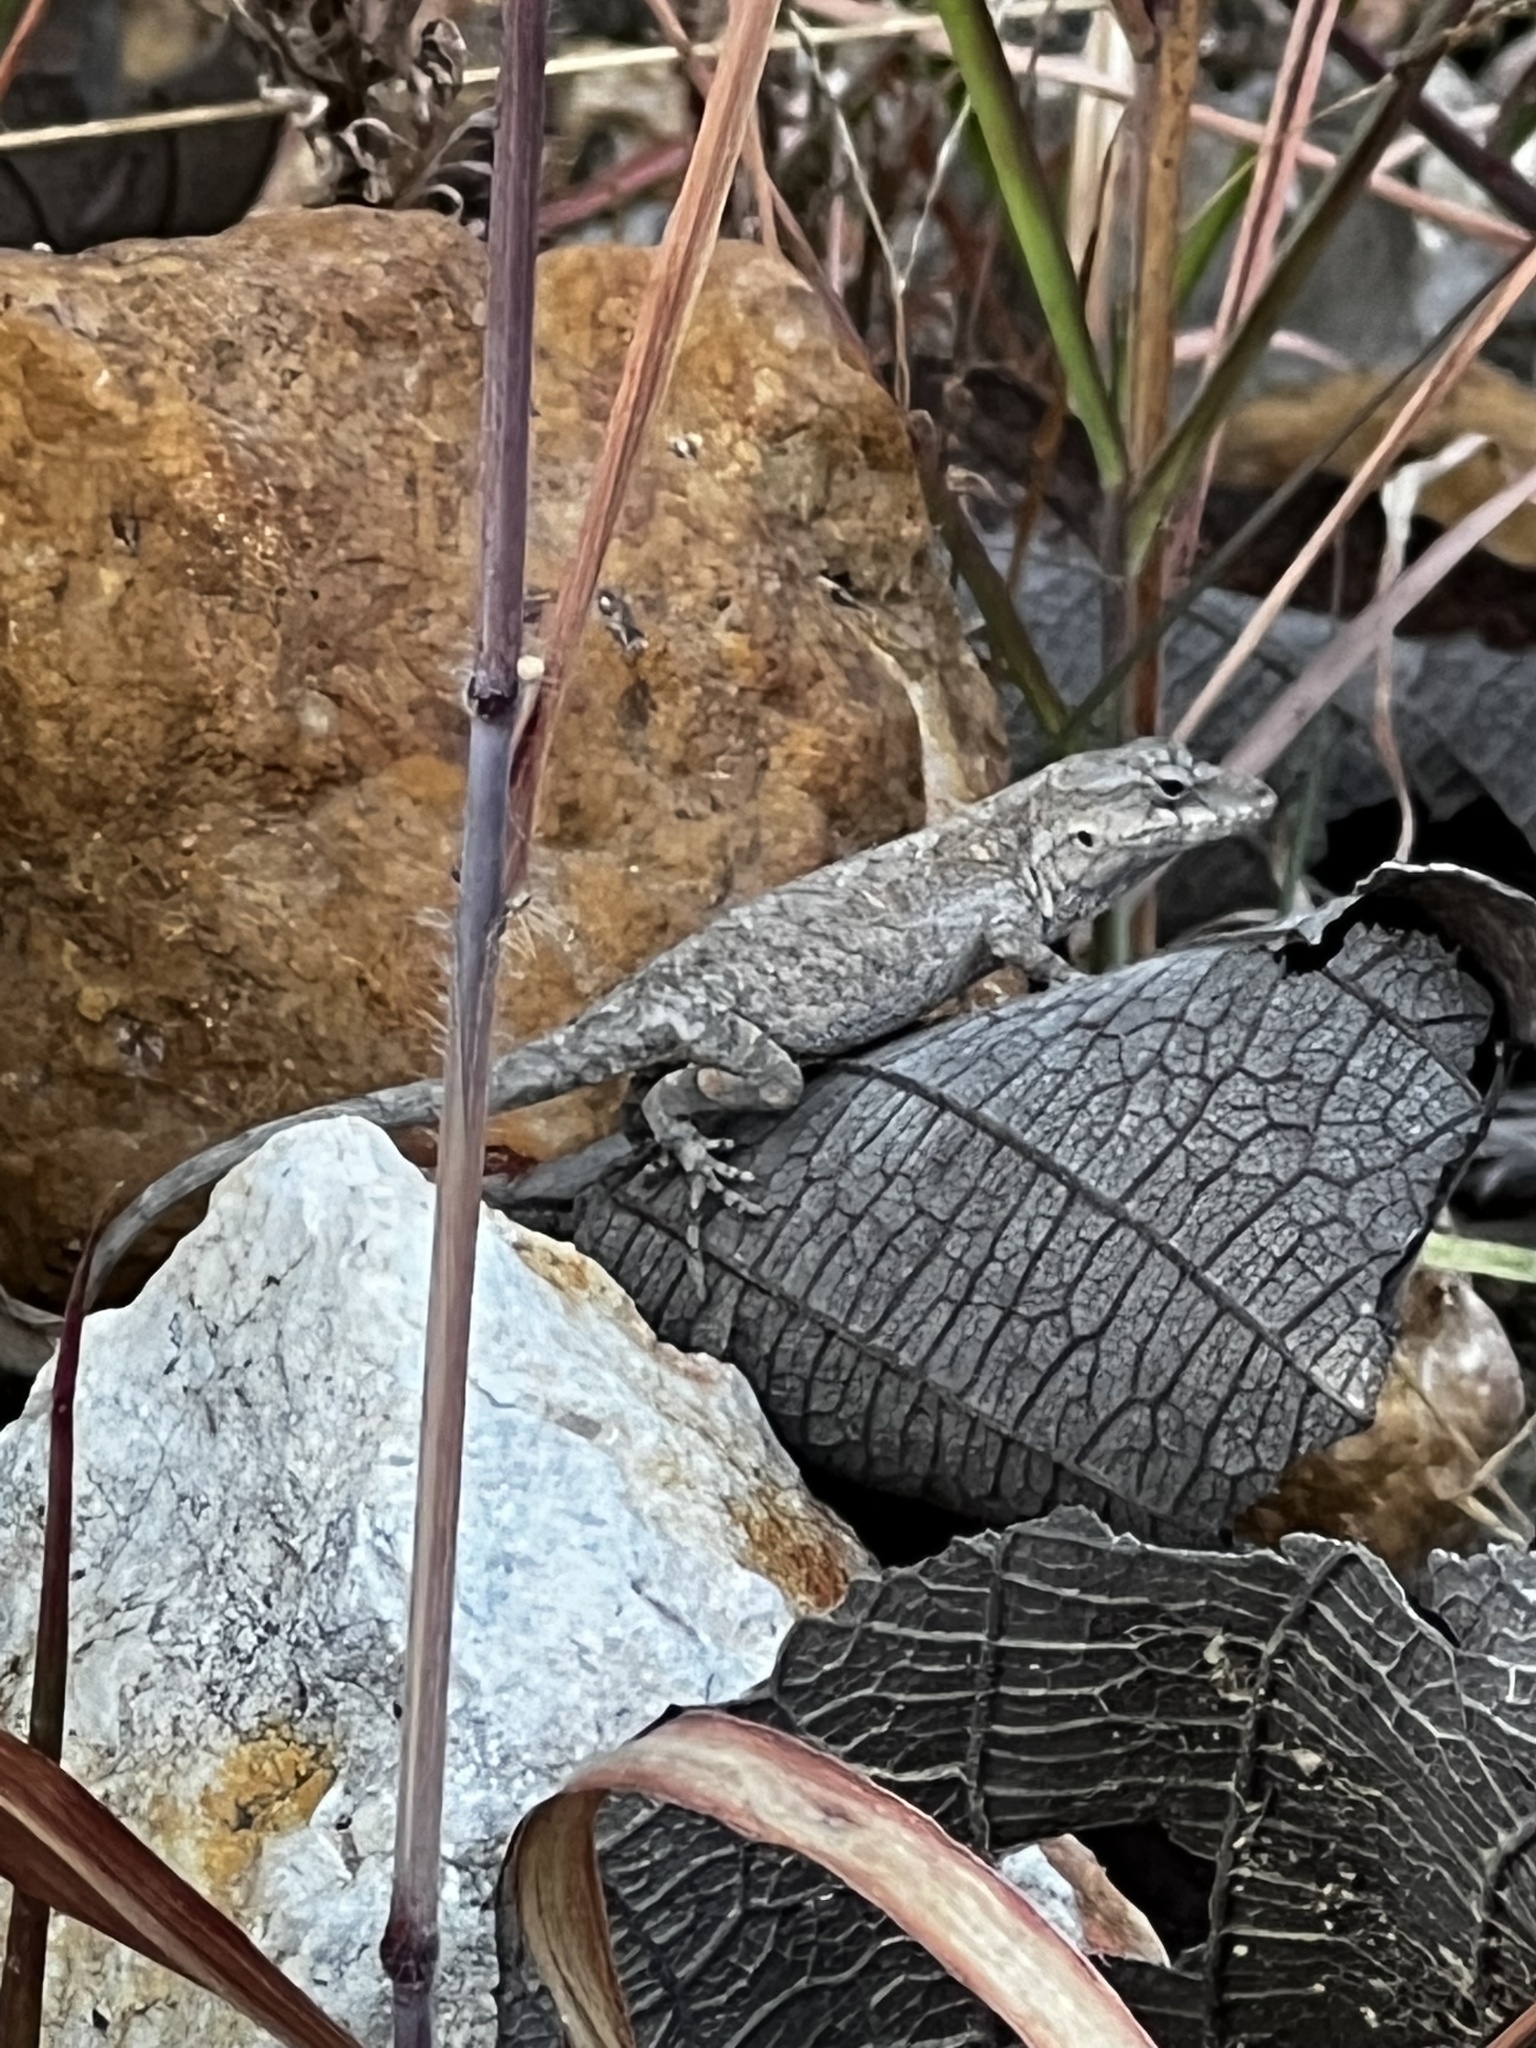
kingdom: Animalia
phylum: Chordata
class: Squamata
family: Dactyloidae
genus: Anolis
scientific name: Anolis nebulosus
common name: Clouded anole
